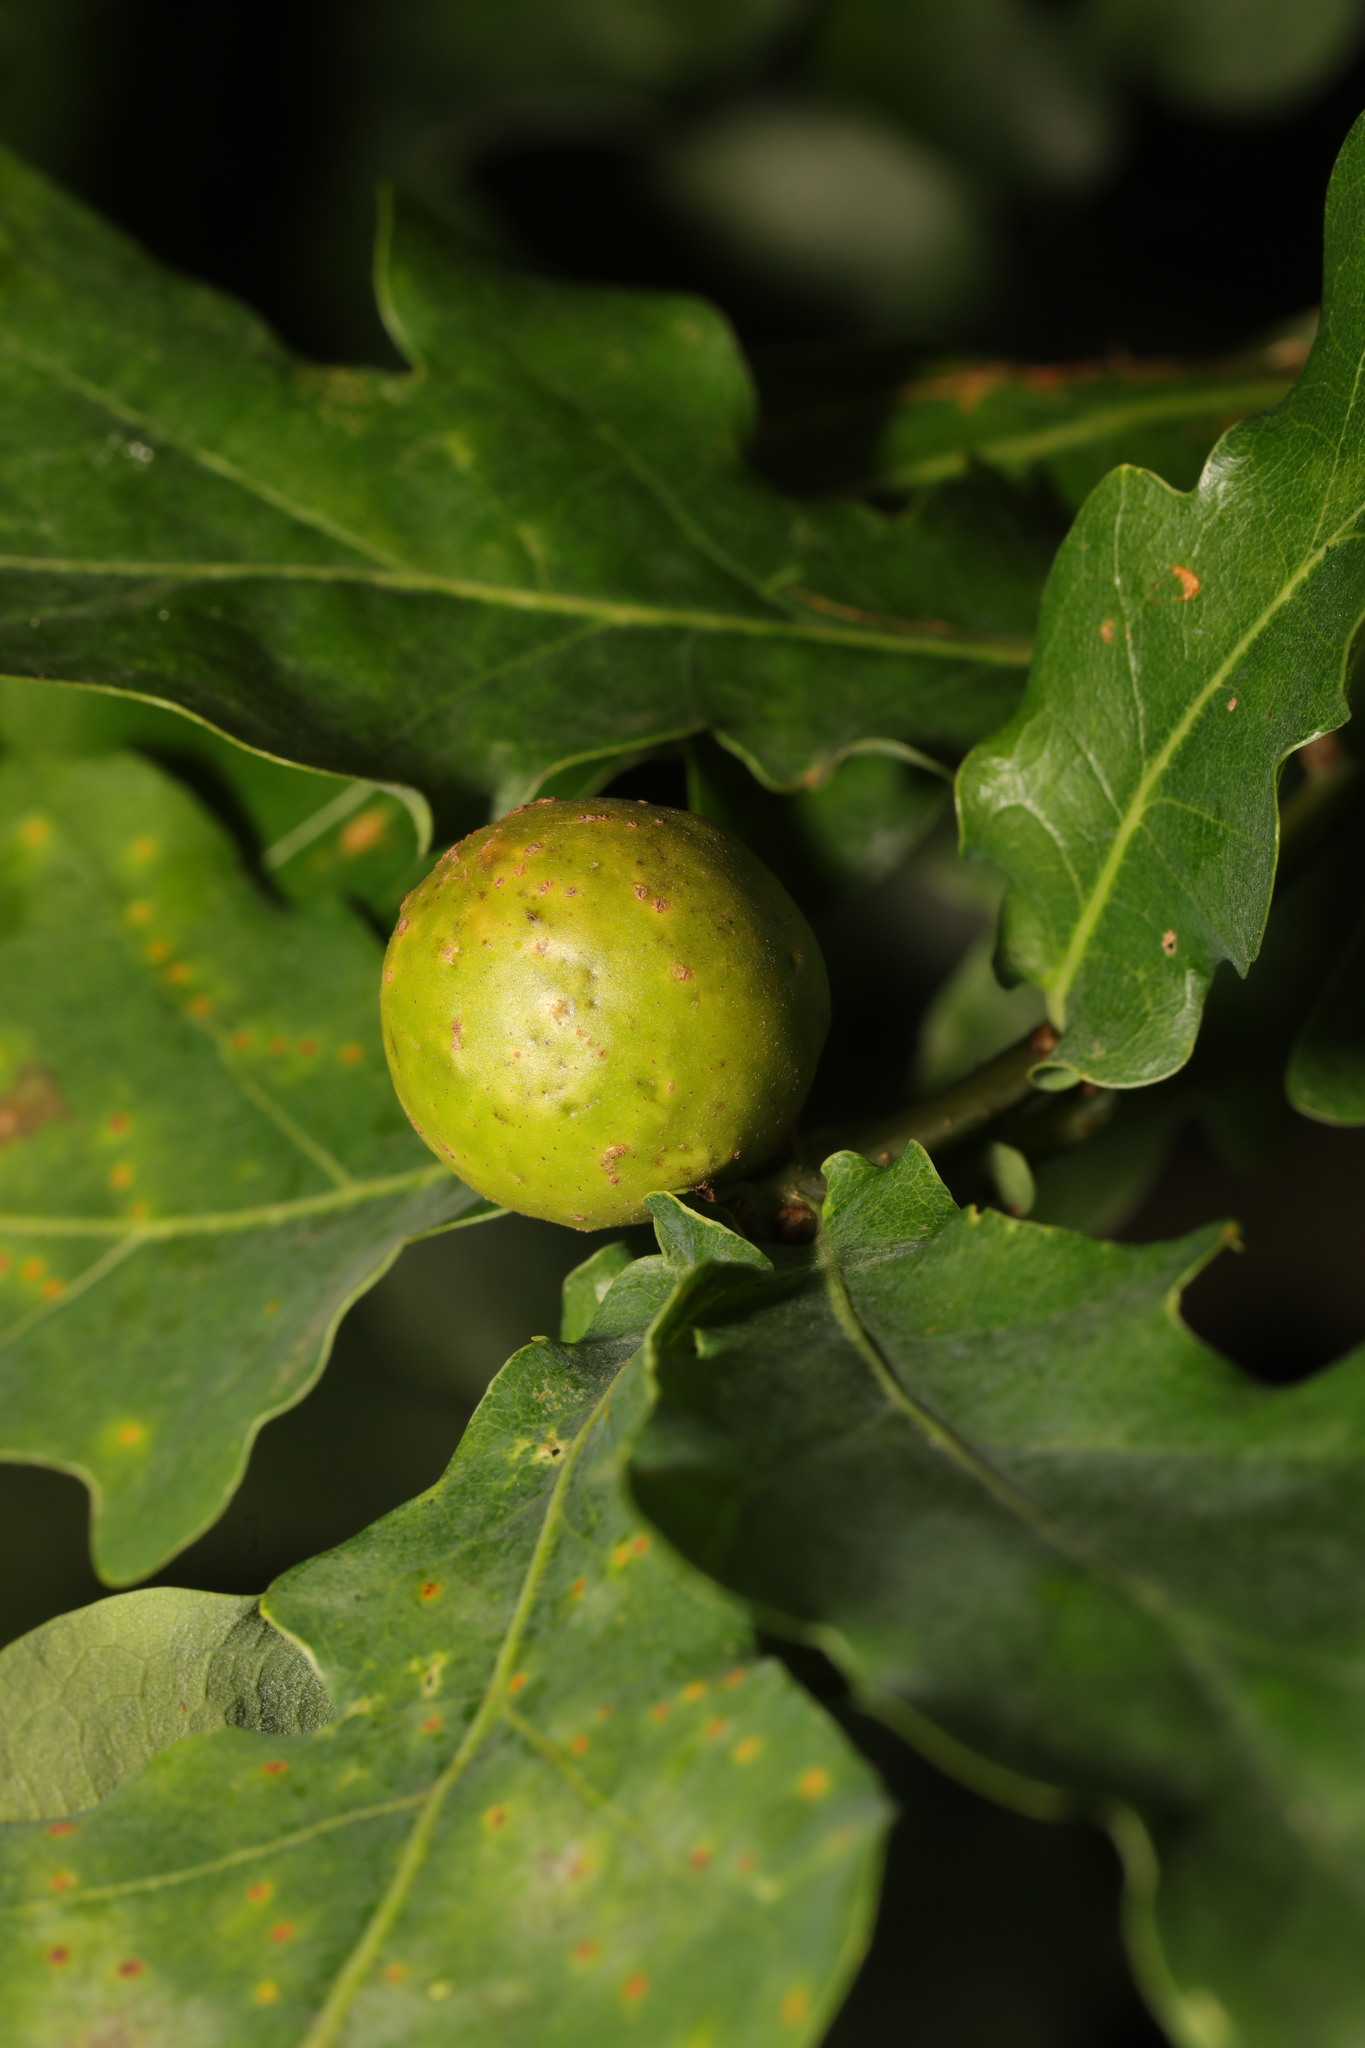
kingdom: Animalia
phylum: Arthropoda
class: Insecta
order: Hymenoptera
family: Cynipidae
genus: Andricus
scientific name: Andricus kollari
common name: Marble gall
